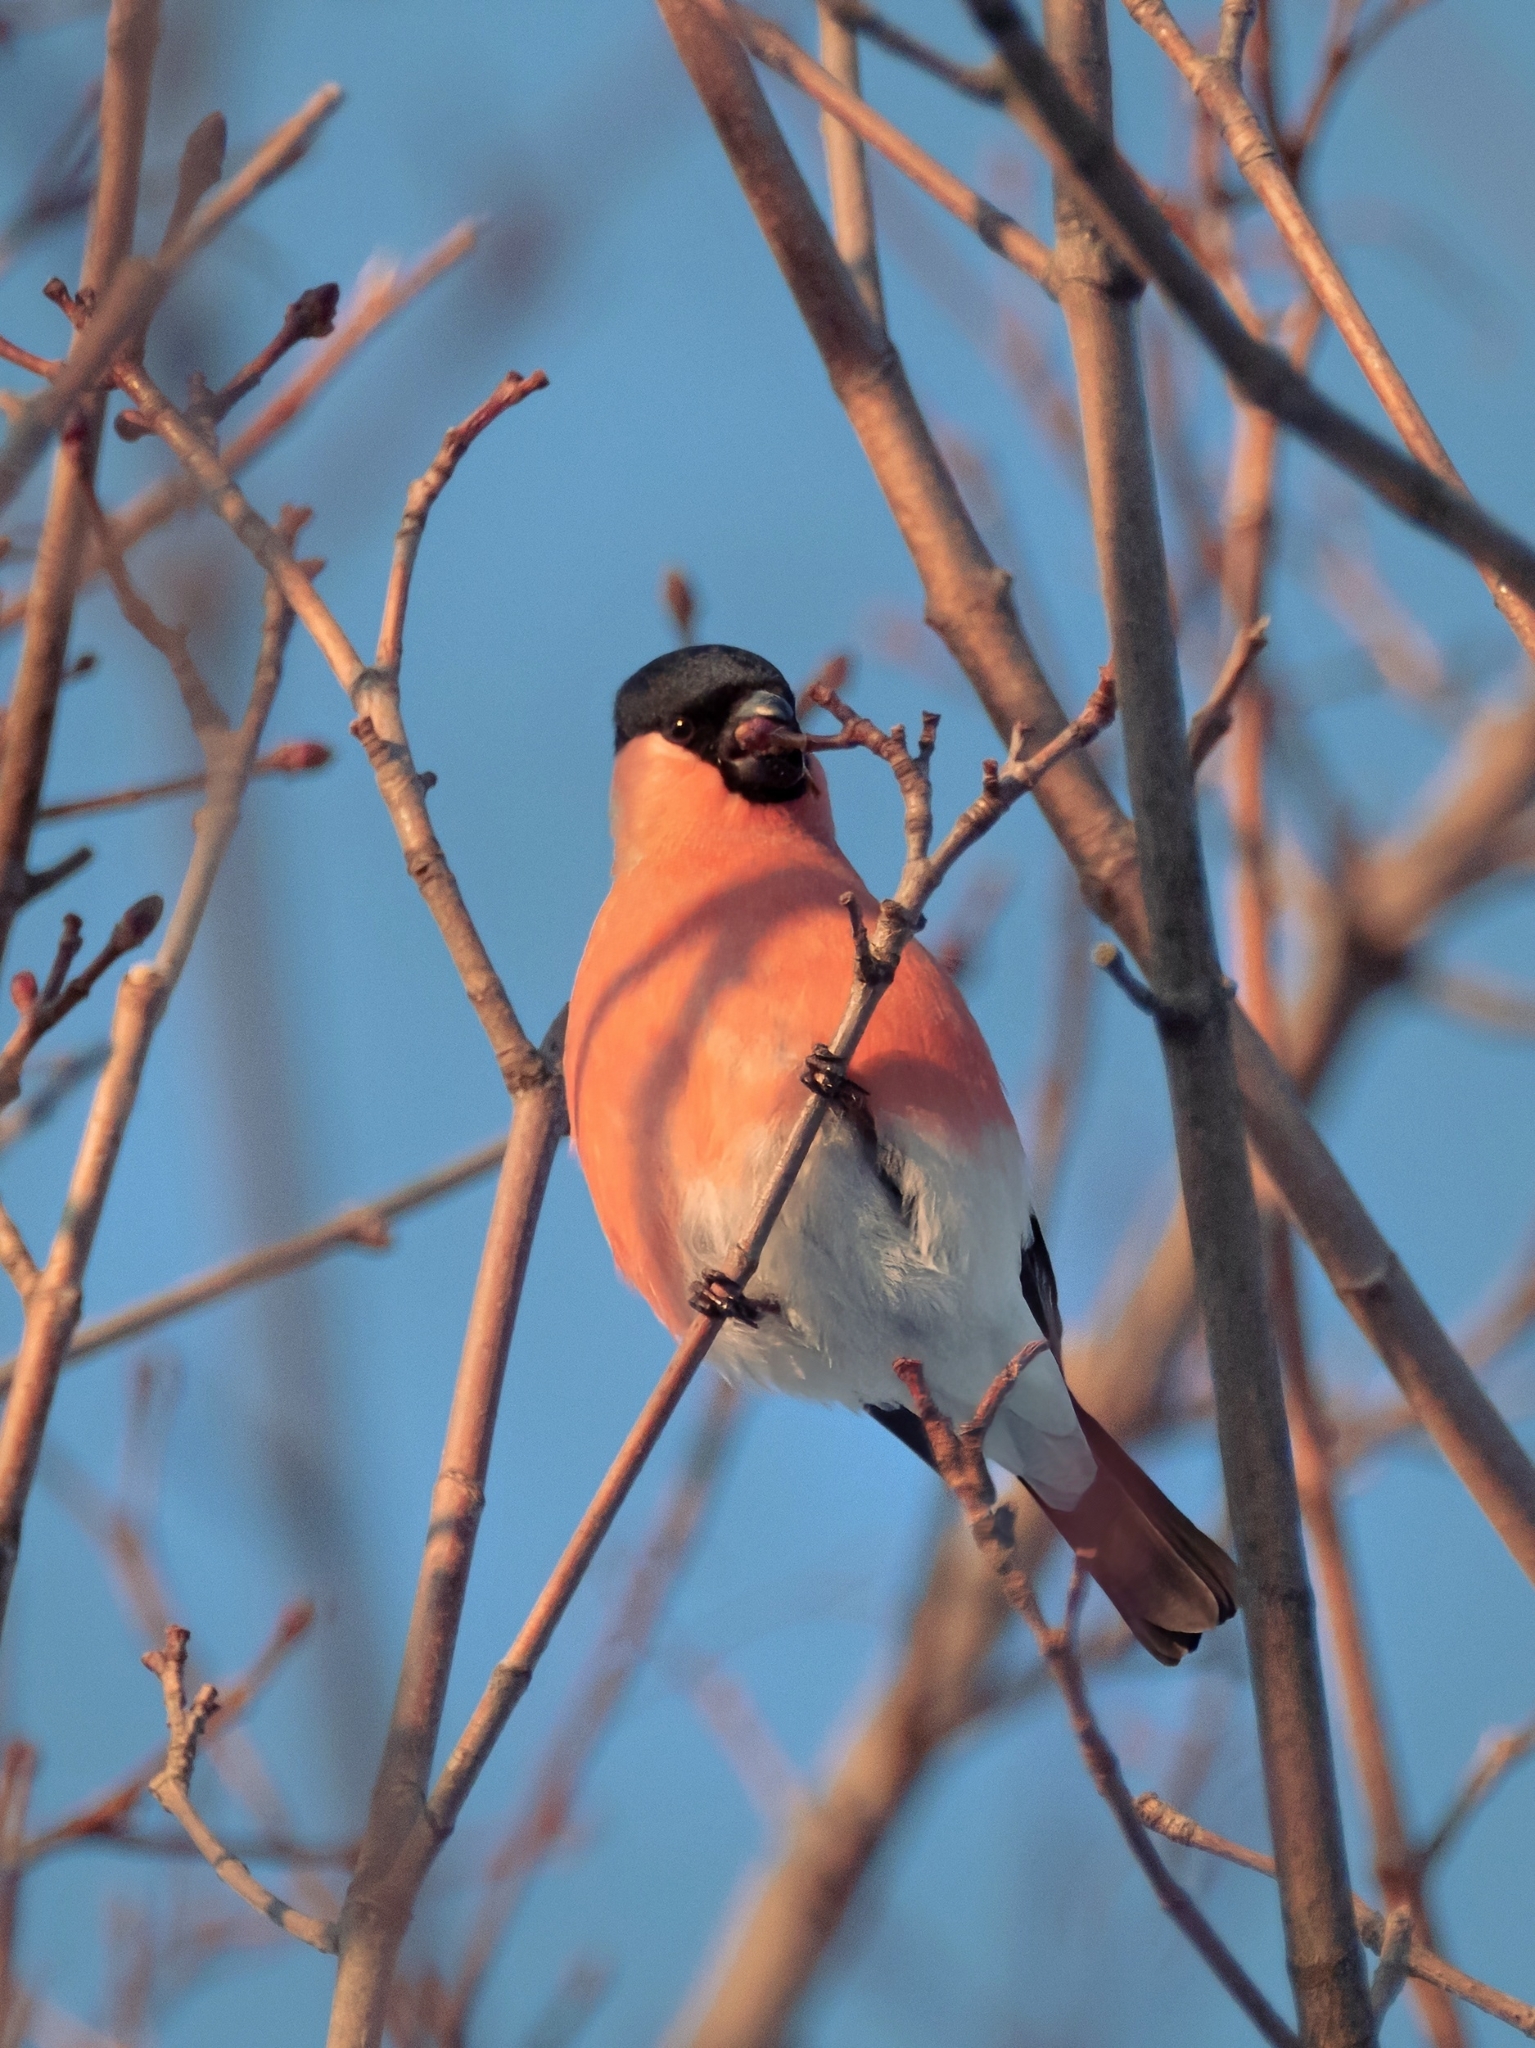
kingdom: Animalia
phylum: Chordata
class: Aves
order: Passeriformes
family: Fringillidae
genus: Pyrrhula
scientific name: Pyrrhula pyrrhula
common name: Eurasian bullfinch
